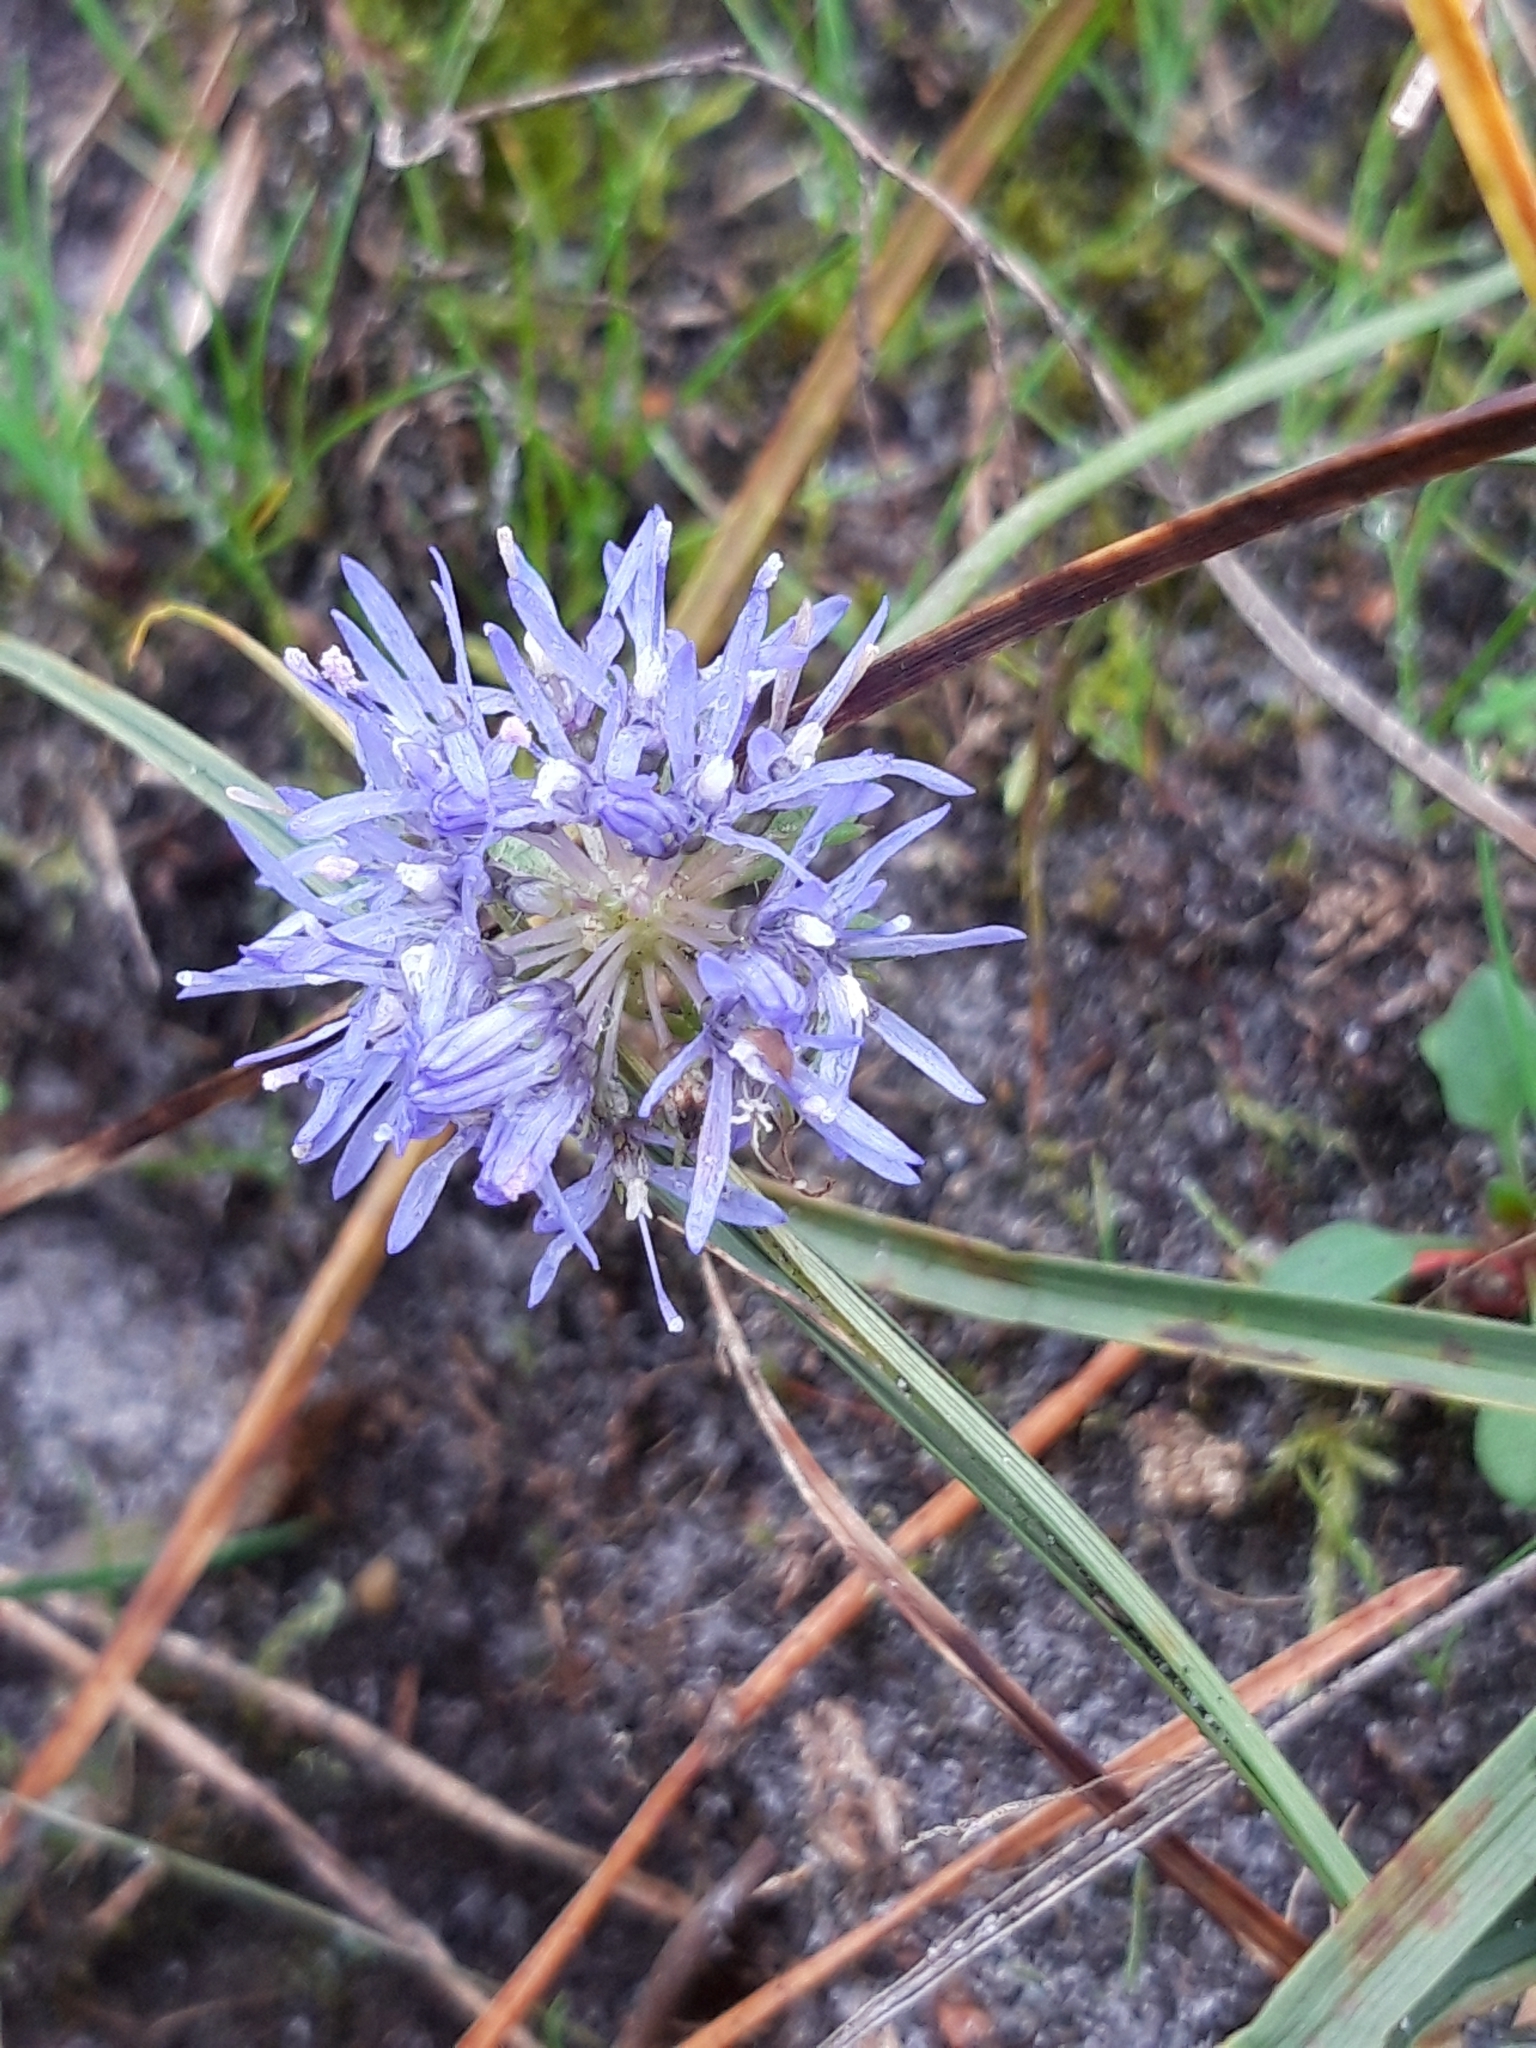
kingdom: Plantae
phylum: Tracheophyta
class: Magnoliopsida
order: Asterales
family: Campanulaceae
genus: Jasione
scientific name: Jasione montana
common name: Sheep's-bit
